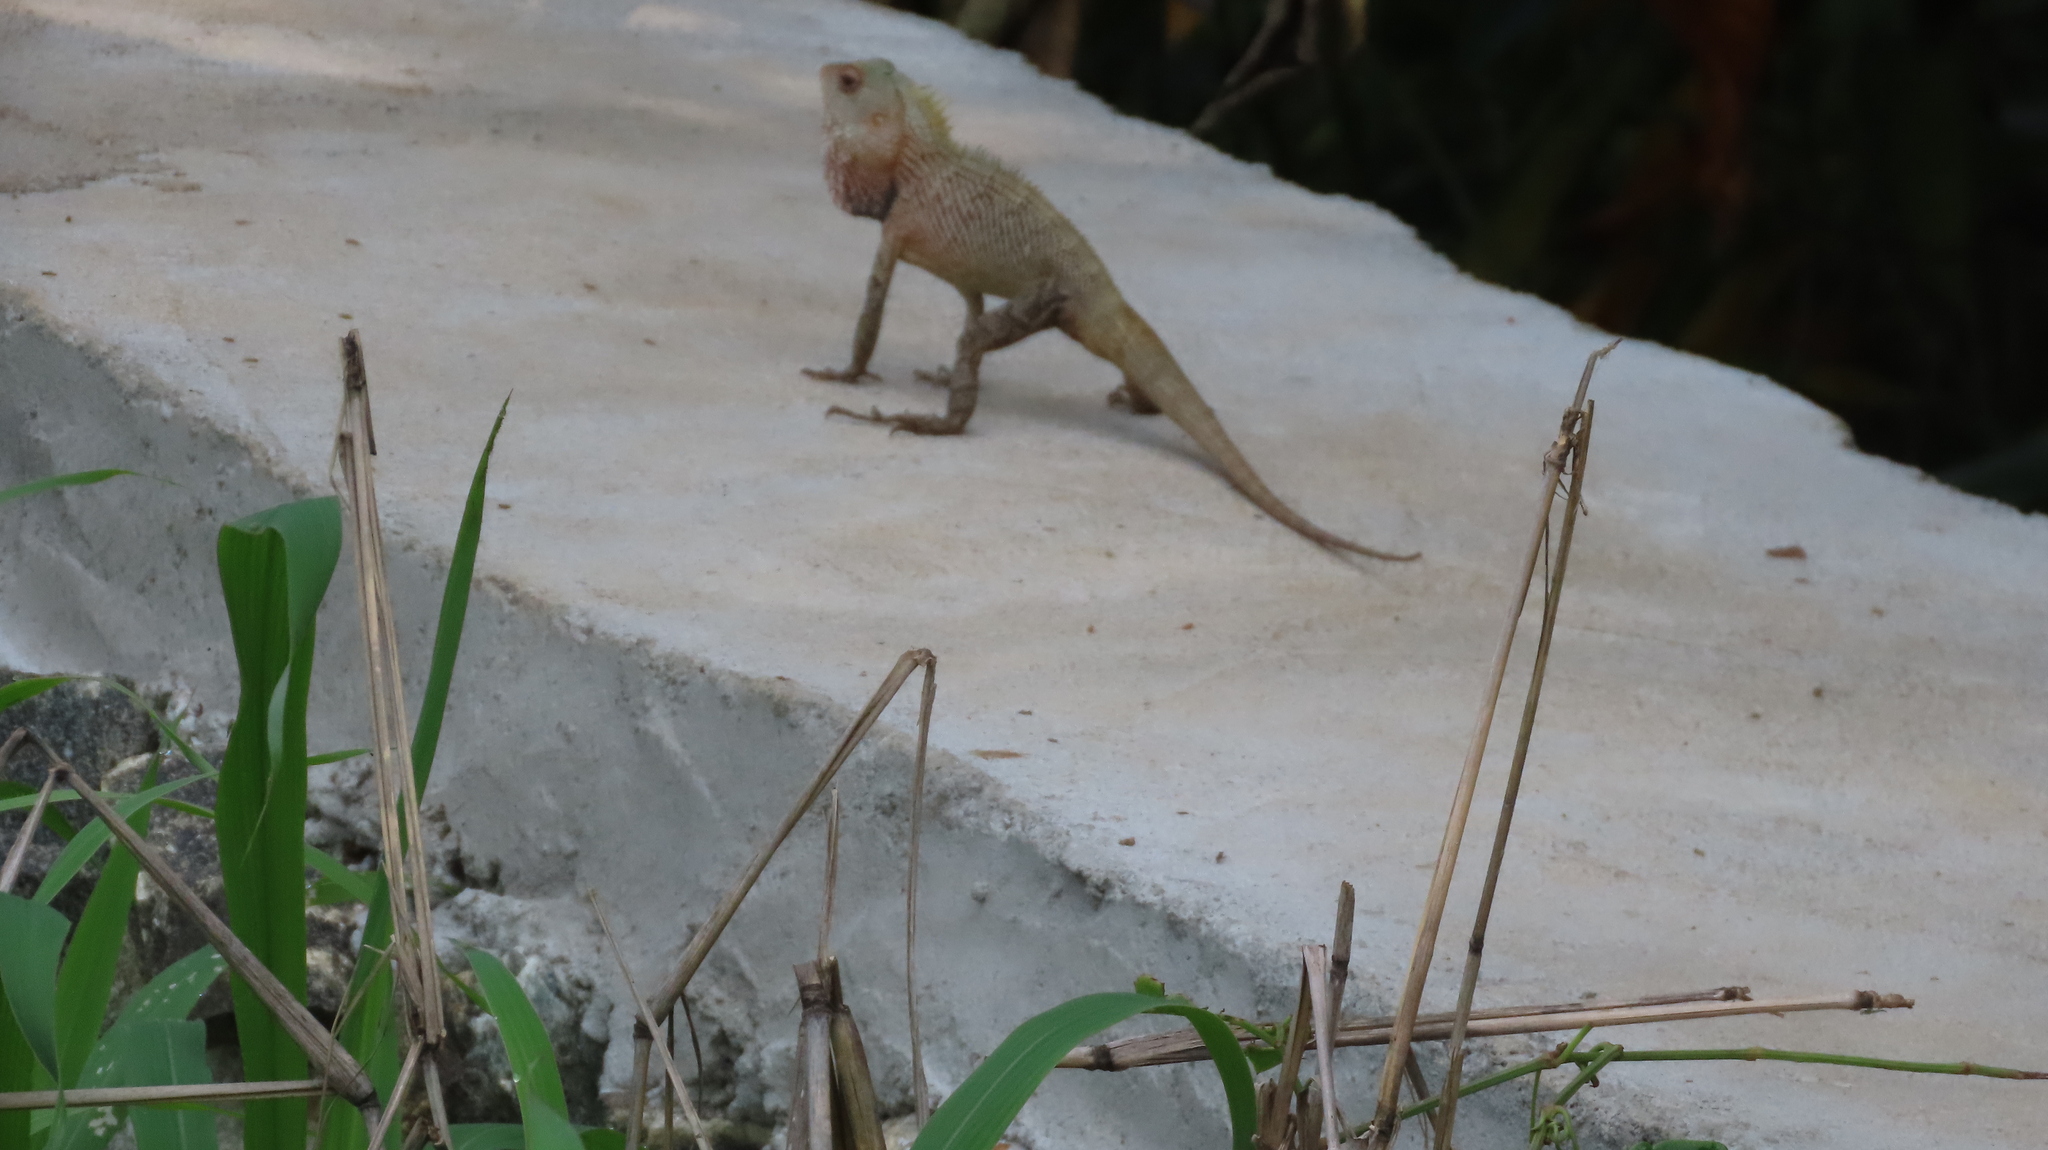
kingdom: Animalia
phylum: Chordata
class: Squamata
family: Agamidae
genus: Calotes
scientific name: Calotes versicolor
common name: Oriental garden lizard
